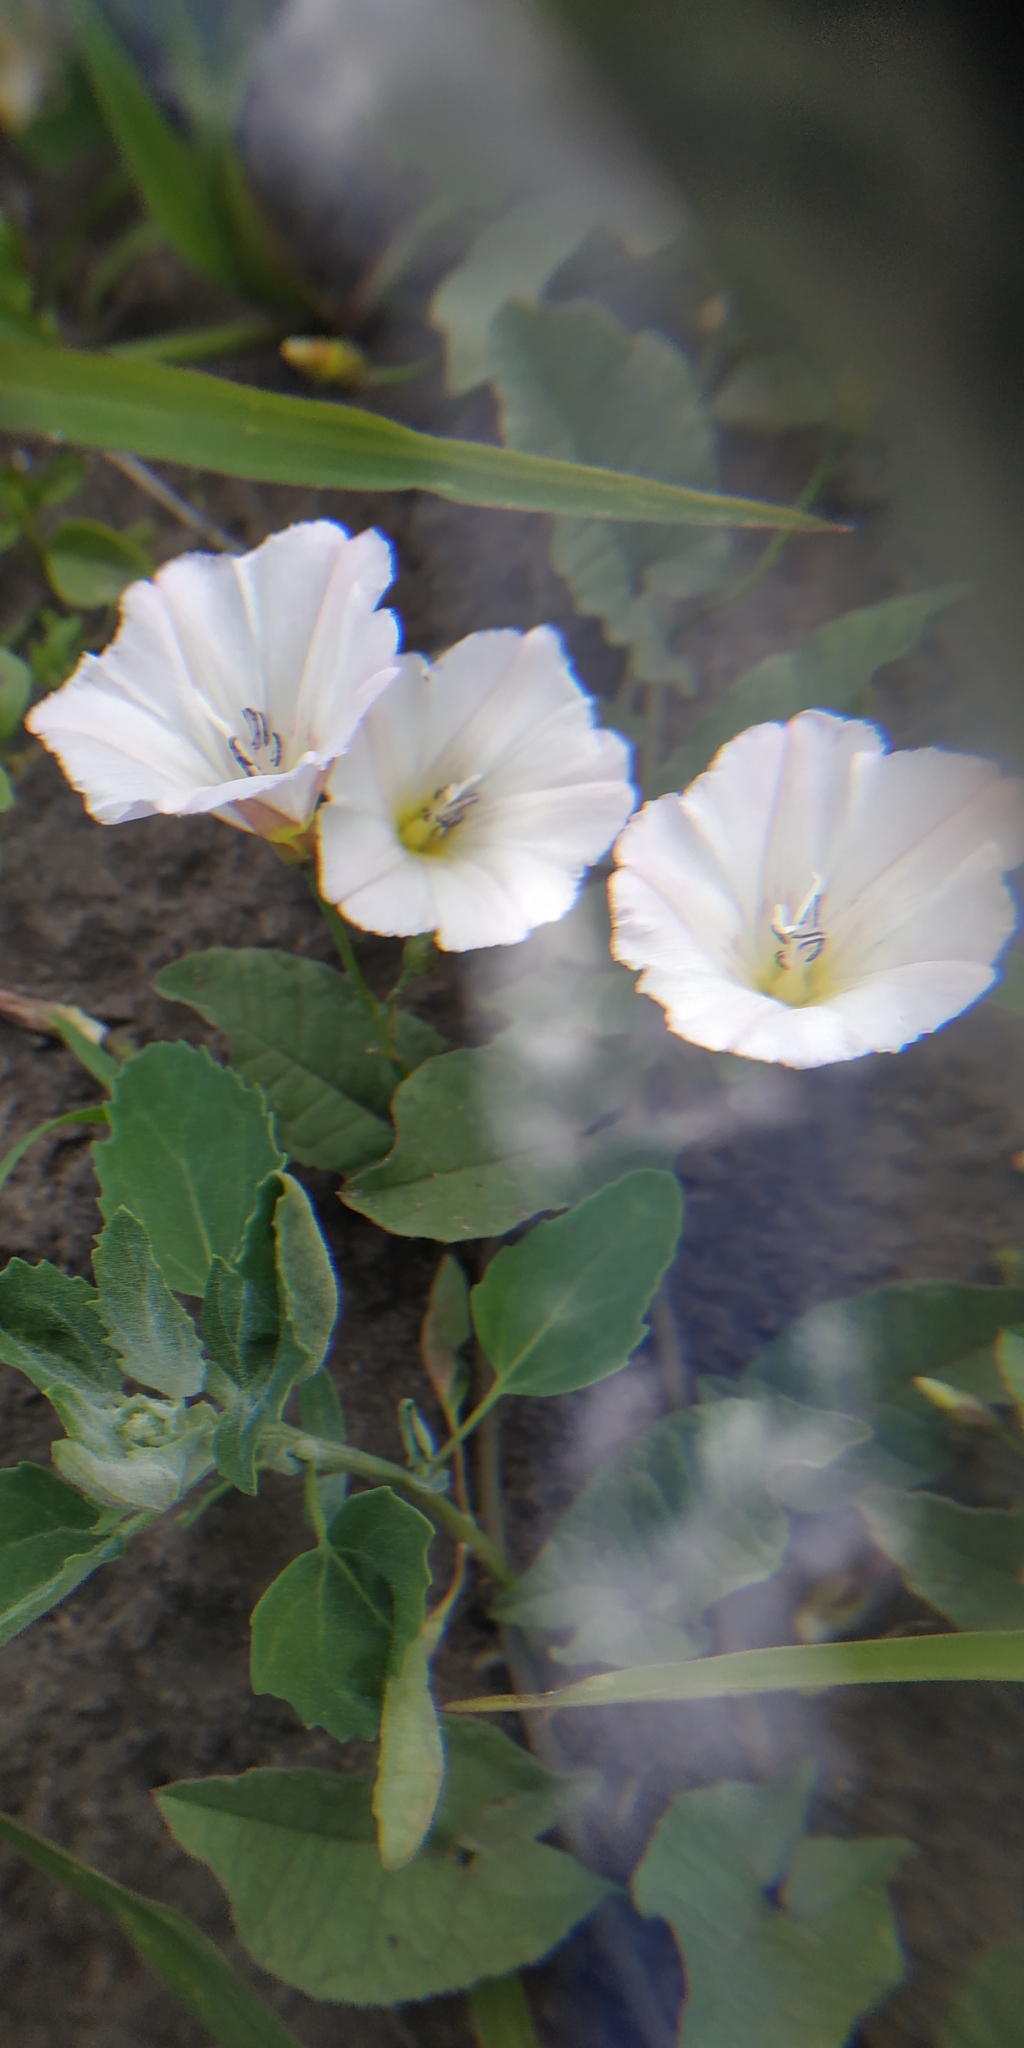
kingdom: Plantae
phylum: Tracheophyta
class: Magnoliopsida
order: Solanales
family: Convolvulaceae
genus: Convolvulus
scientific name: Convolvulus arvensis
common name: Field bindweed
